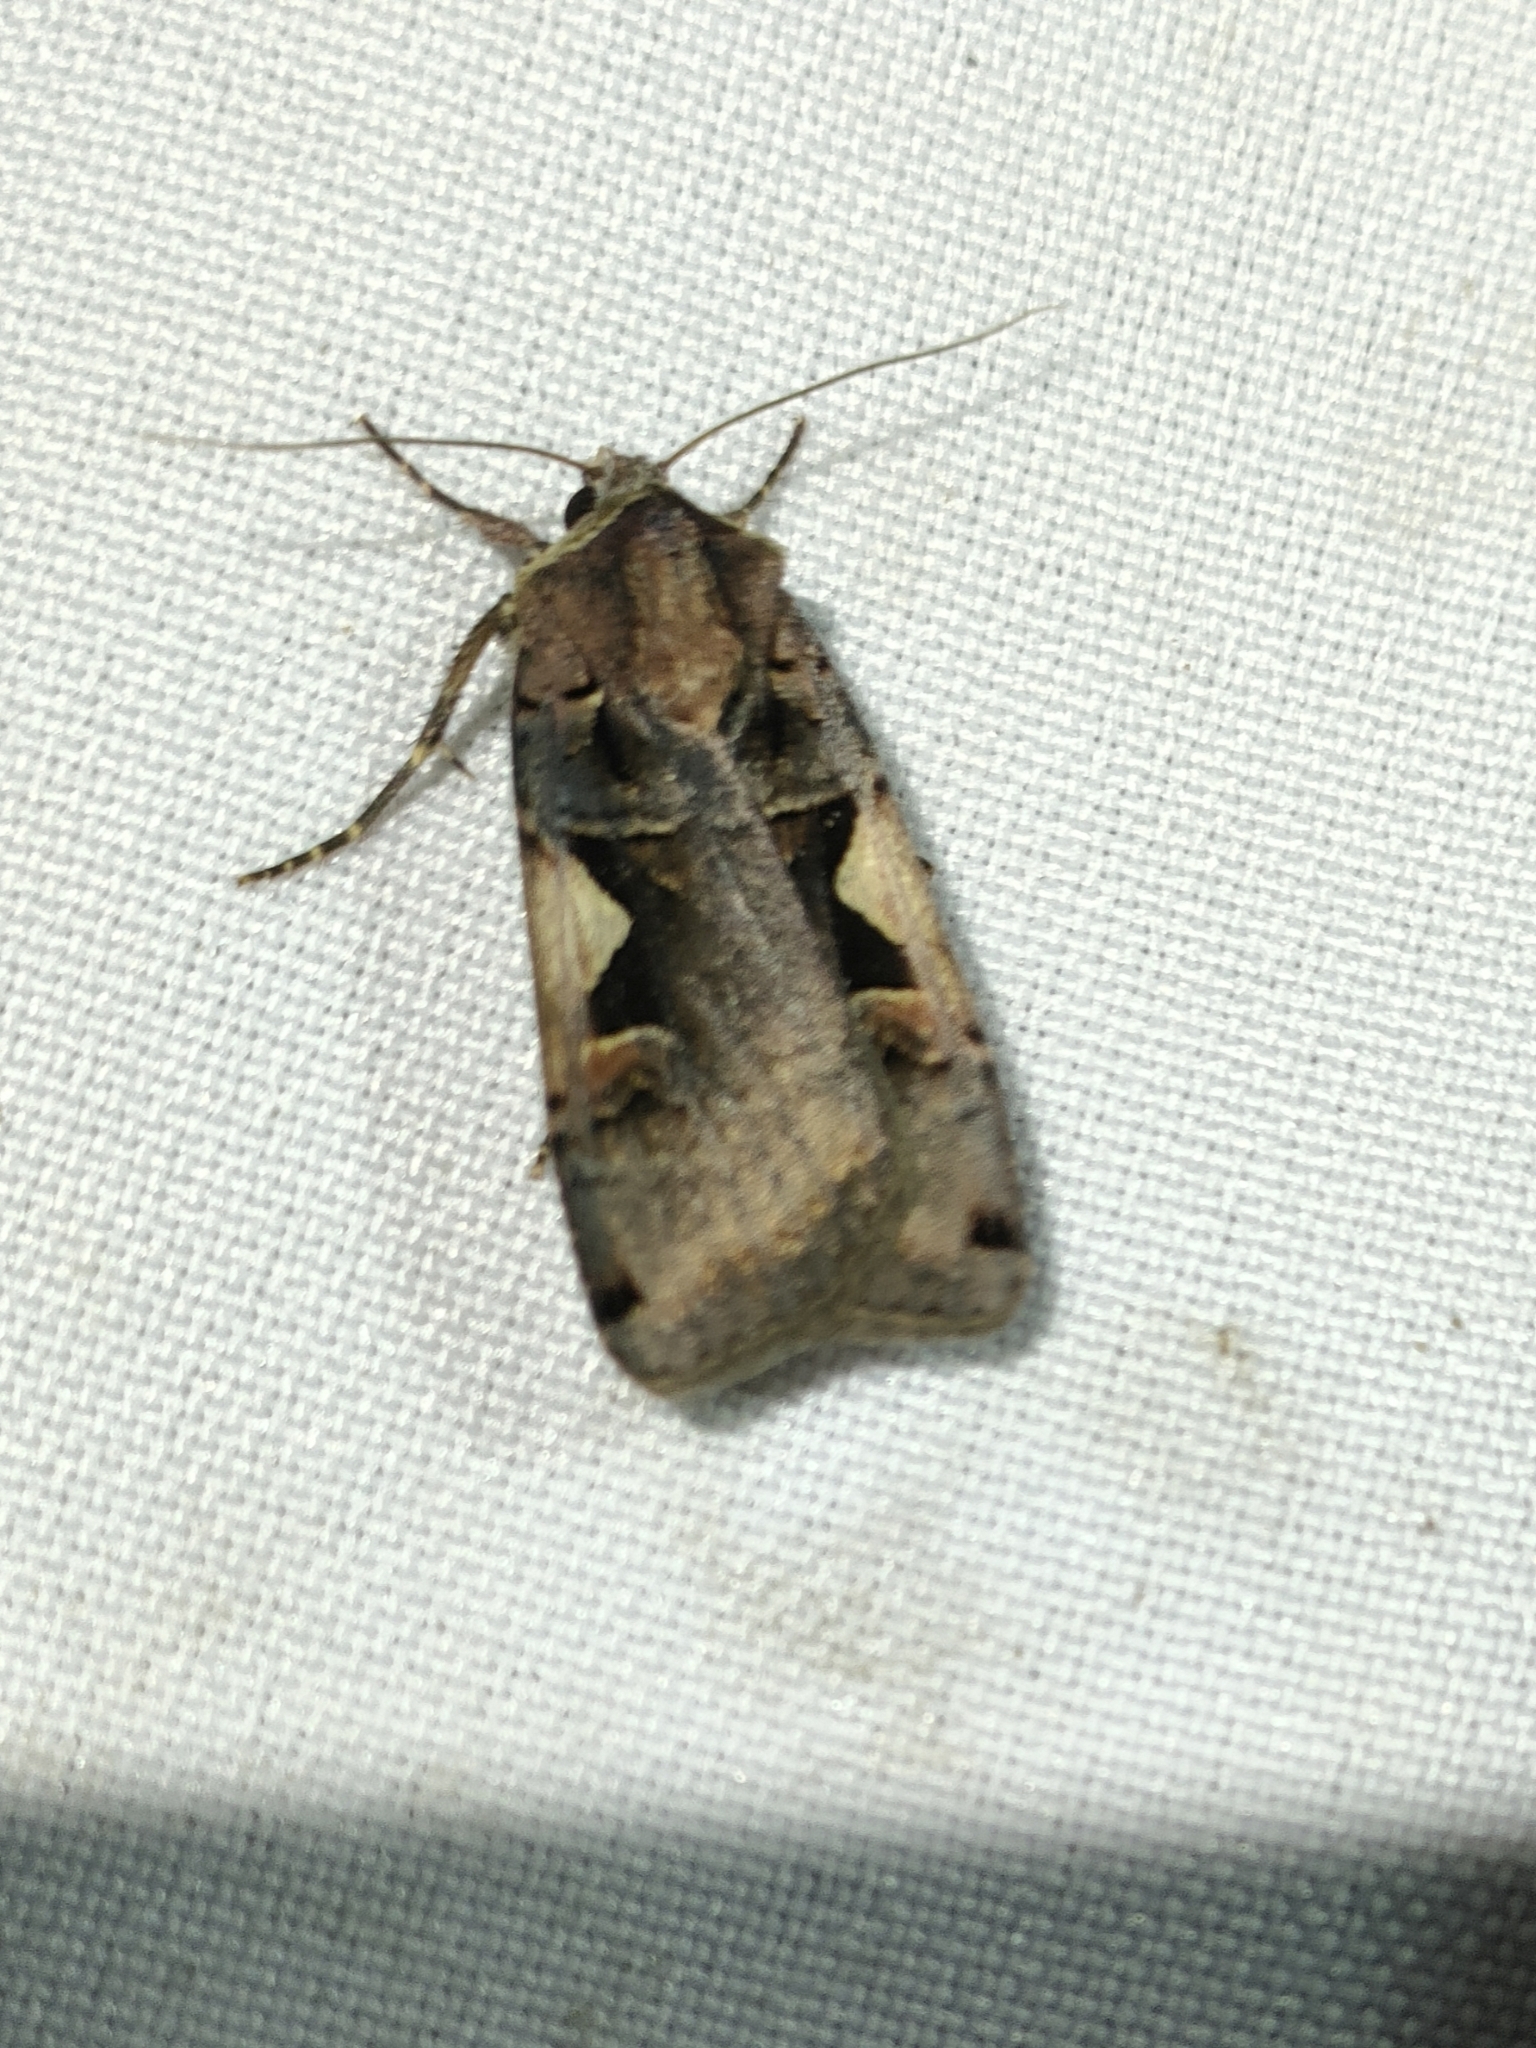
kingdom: Animalia
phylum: Arthropoda
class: Insecta
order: Lepidoptera
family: Noctuidae
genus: Xestia
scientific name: Xestia c-nigrum
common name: Setaceous hebrew character
